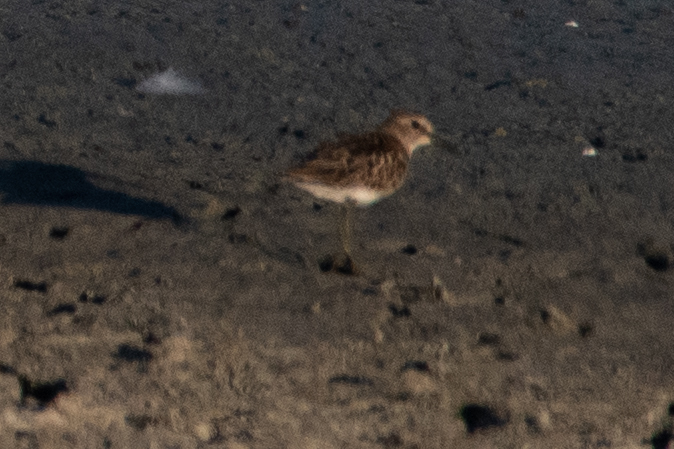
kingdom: Animalia
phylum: Chordata
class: Aves
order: Charadriiformes
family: Scolopacidae
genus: Calidris
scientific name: Calidris minutilla
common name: Least sandpiper
